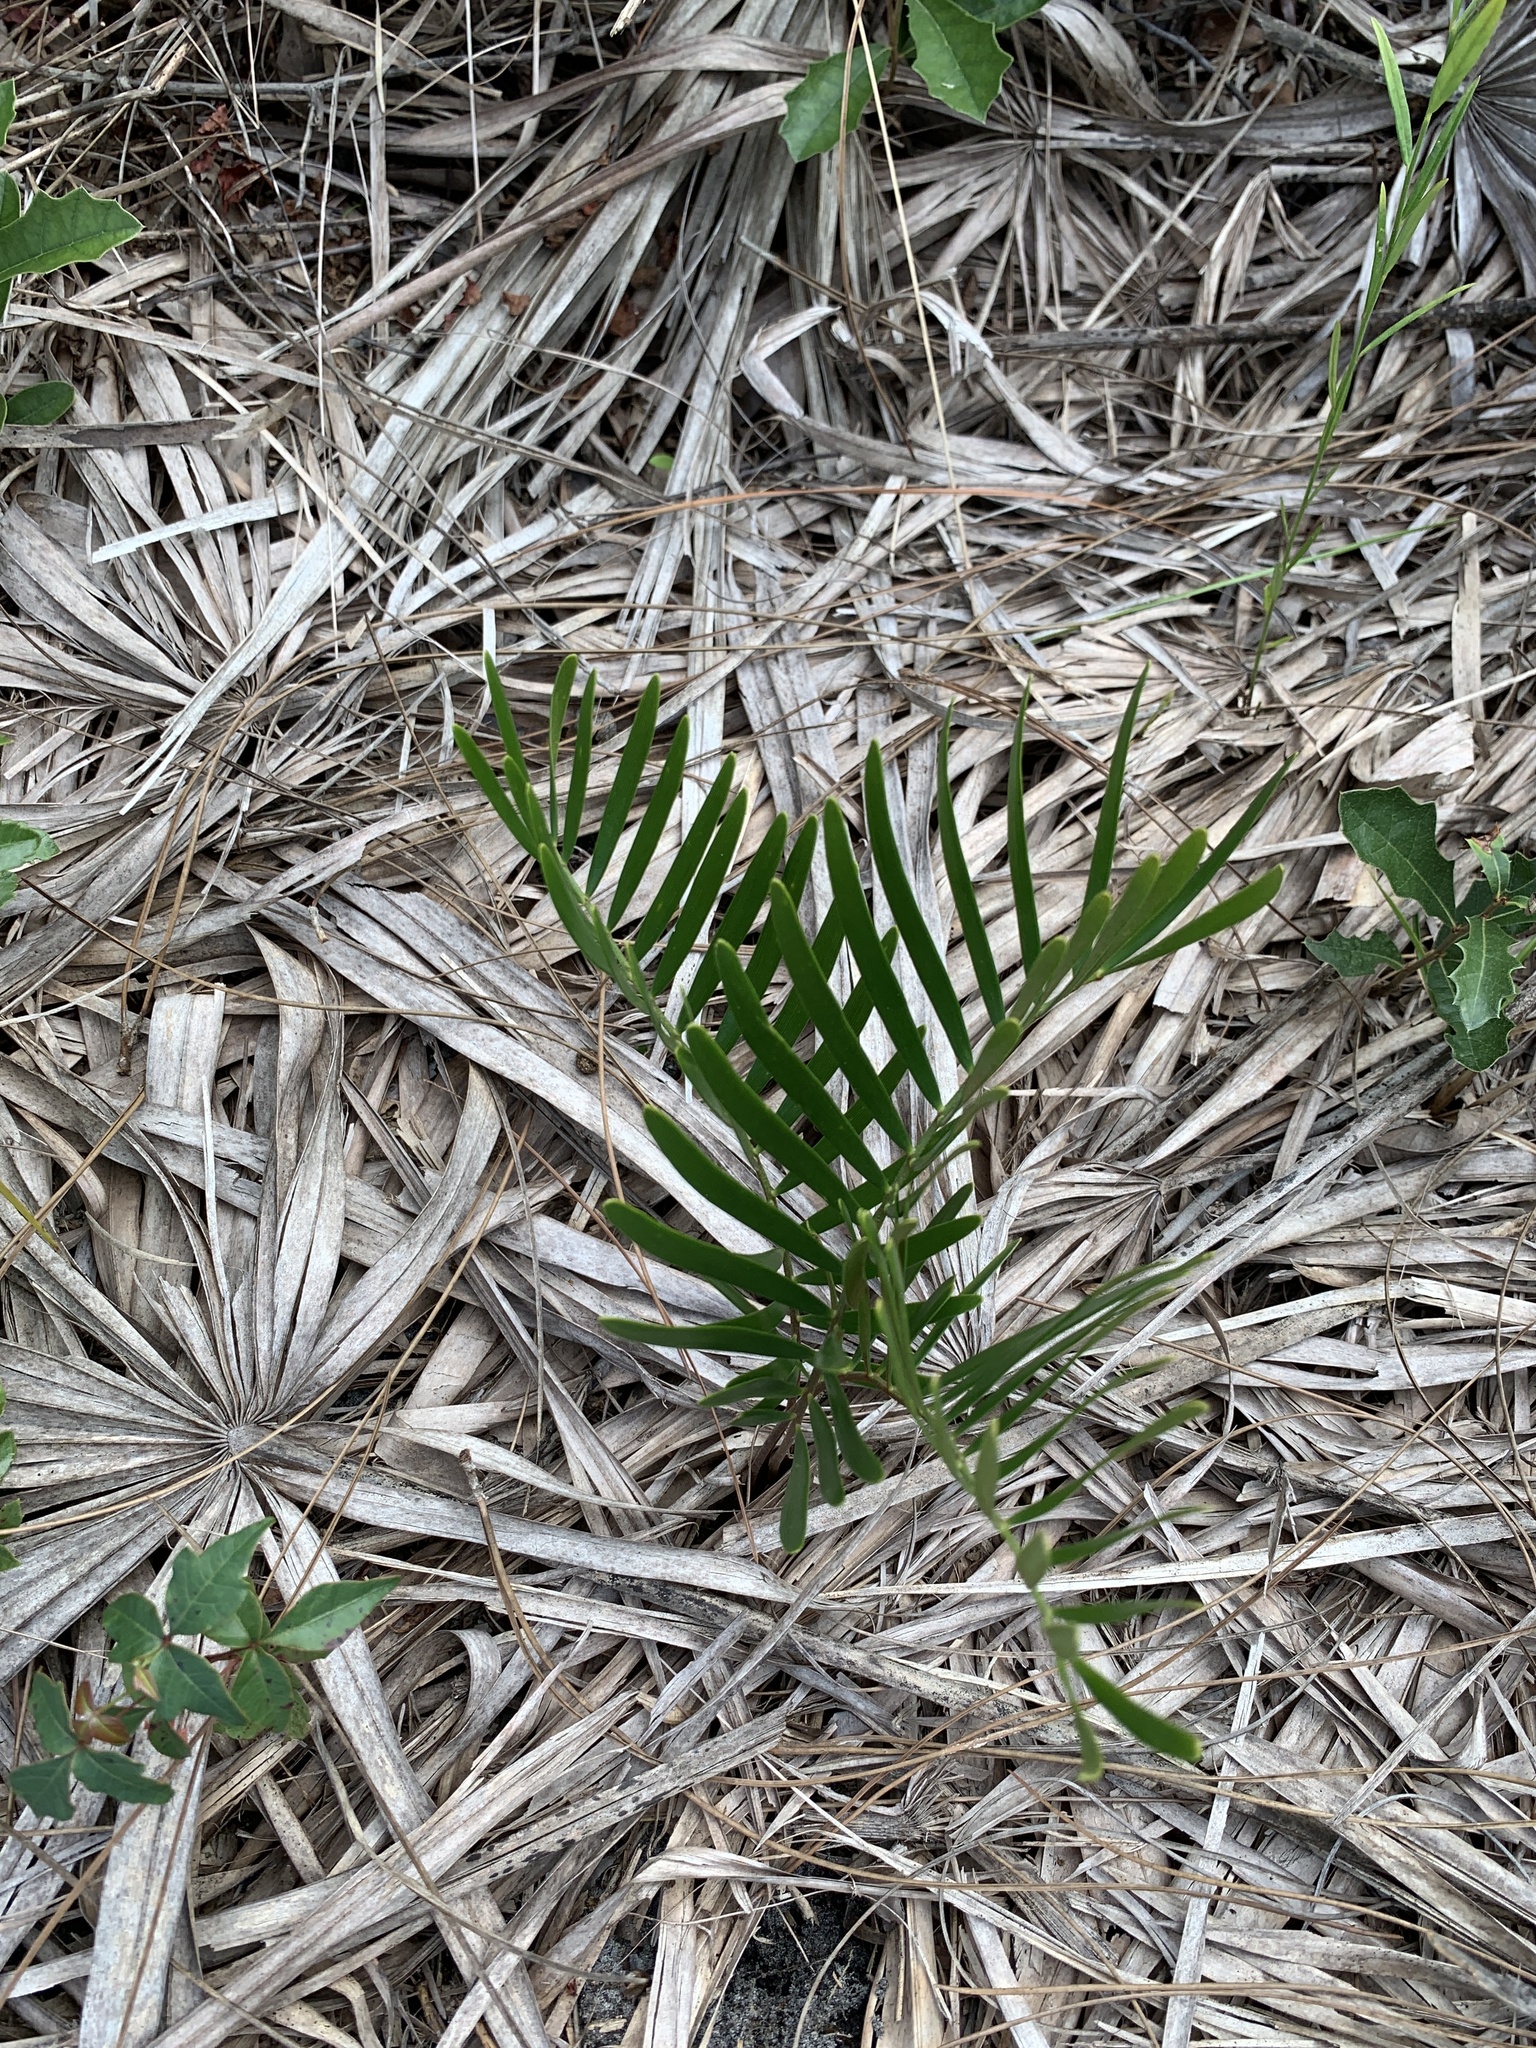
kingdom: Plantae
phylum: Tracheophyta
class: Cycadopsida
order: Cycadales
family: Zamiaceae
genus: Zamia
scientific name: Zamia integrifolia
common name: Florida arrowroot
